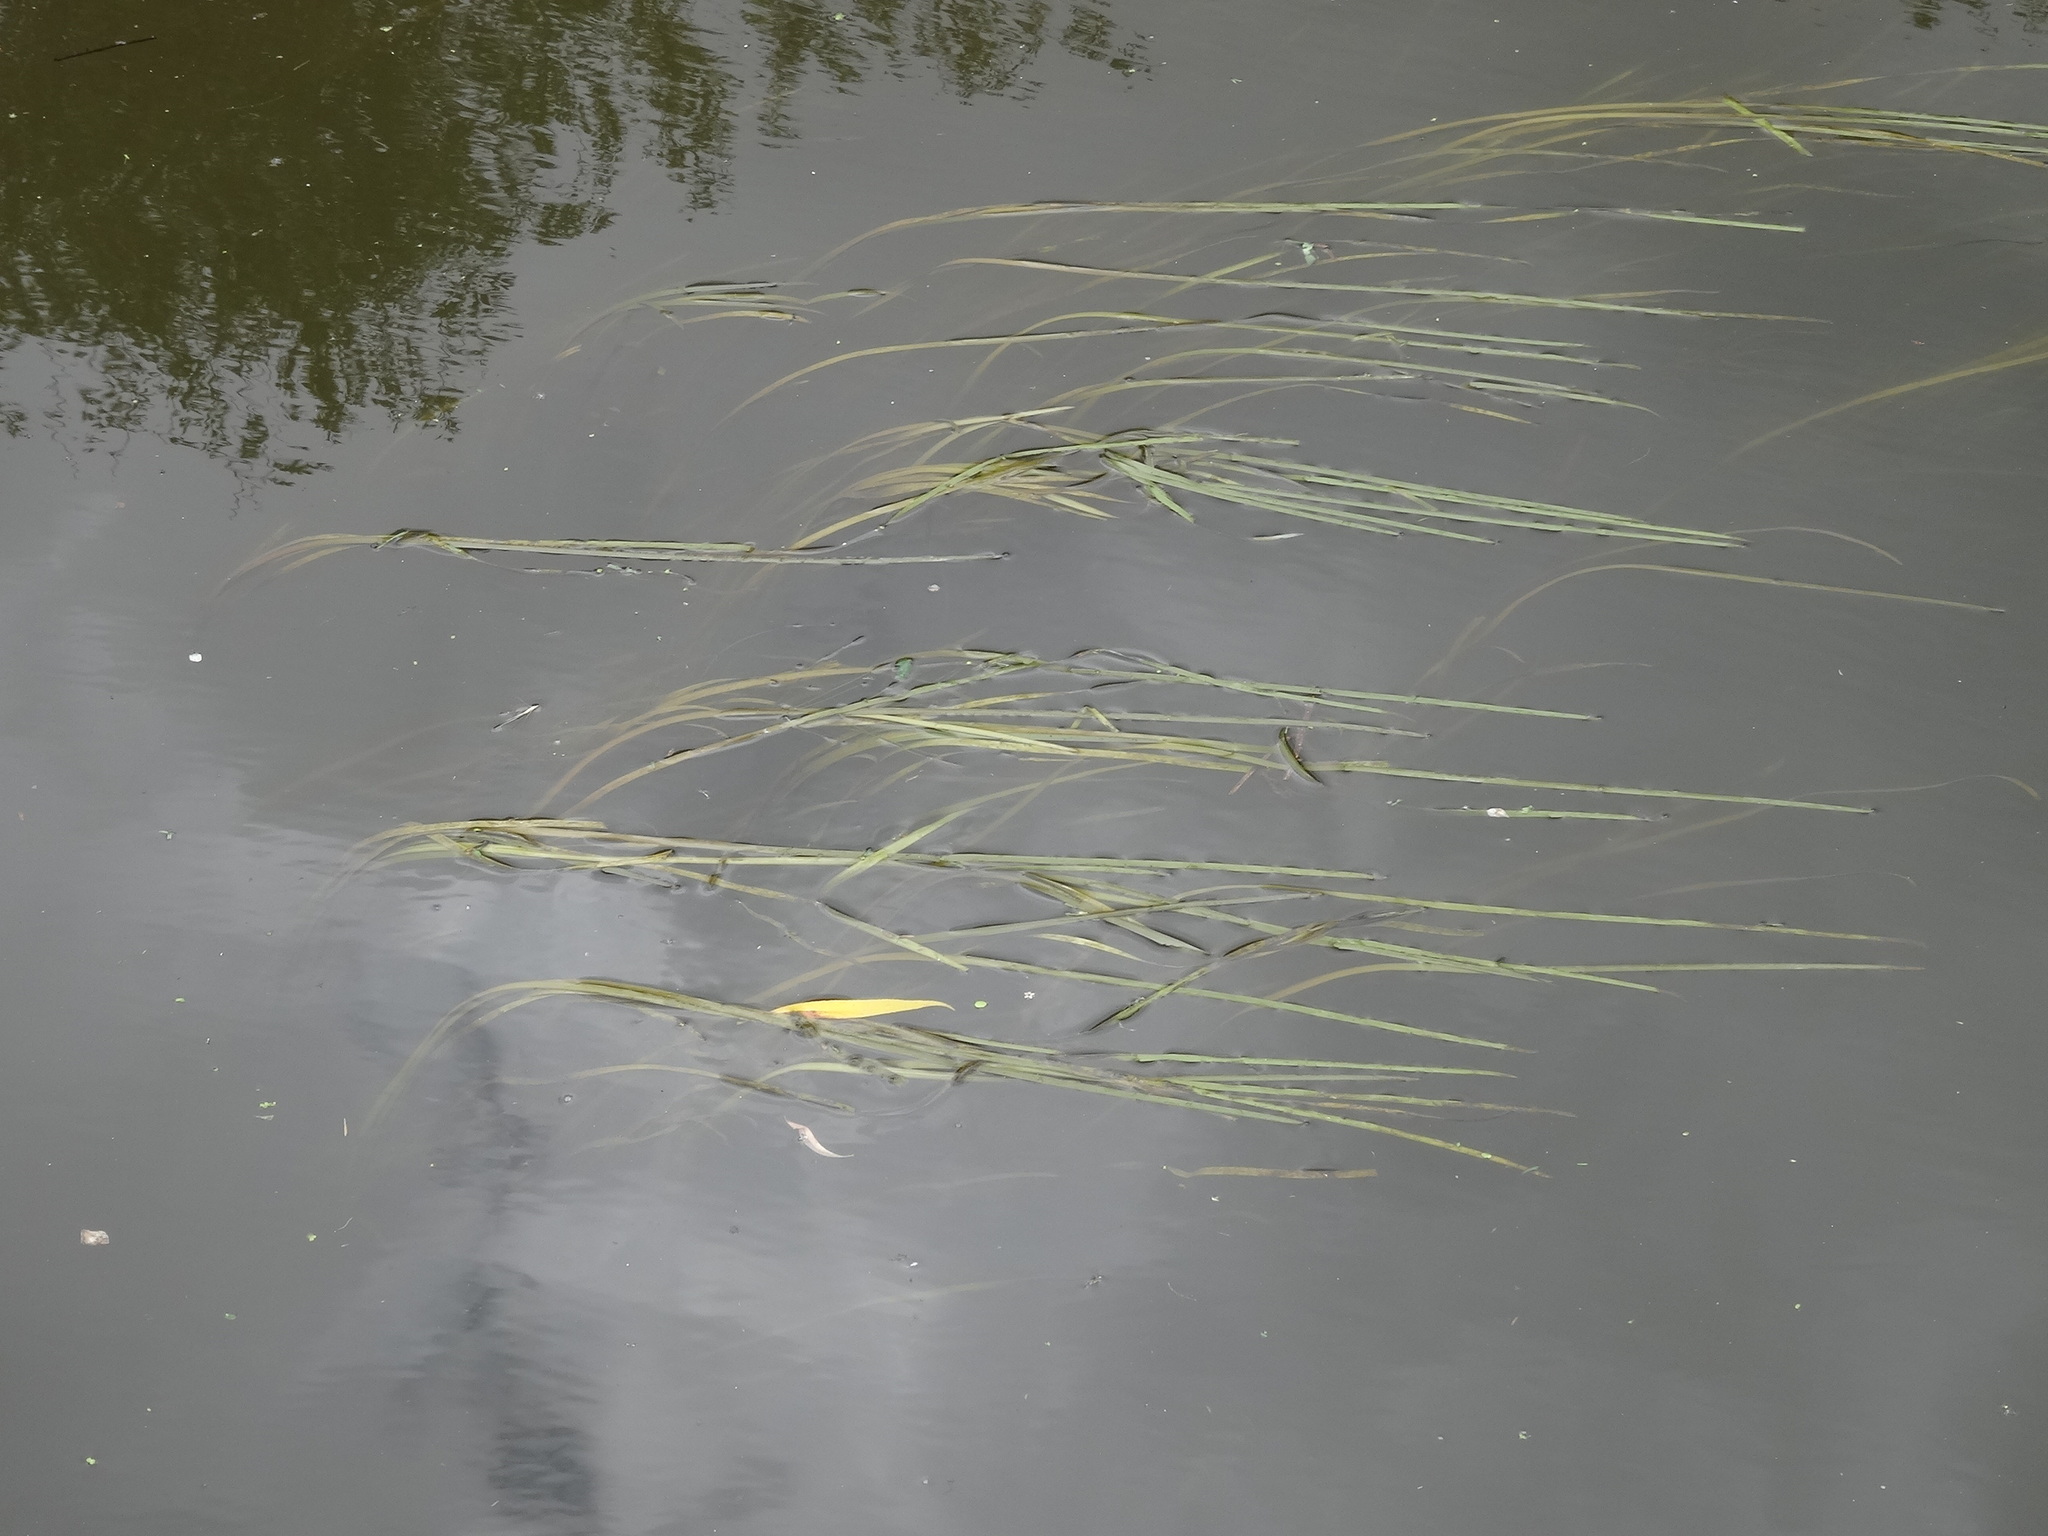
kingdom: Plantae
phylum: Tracheophyta
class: Liliopsida
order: Poales
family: Typhaceae
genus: Sparganium
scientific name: Sparganium
